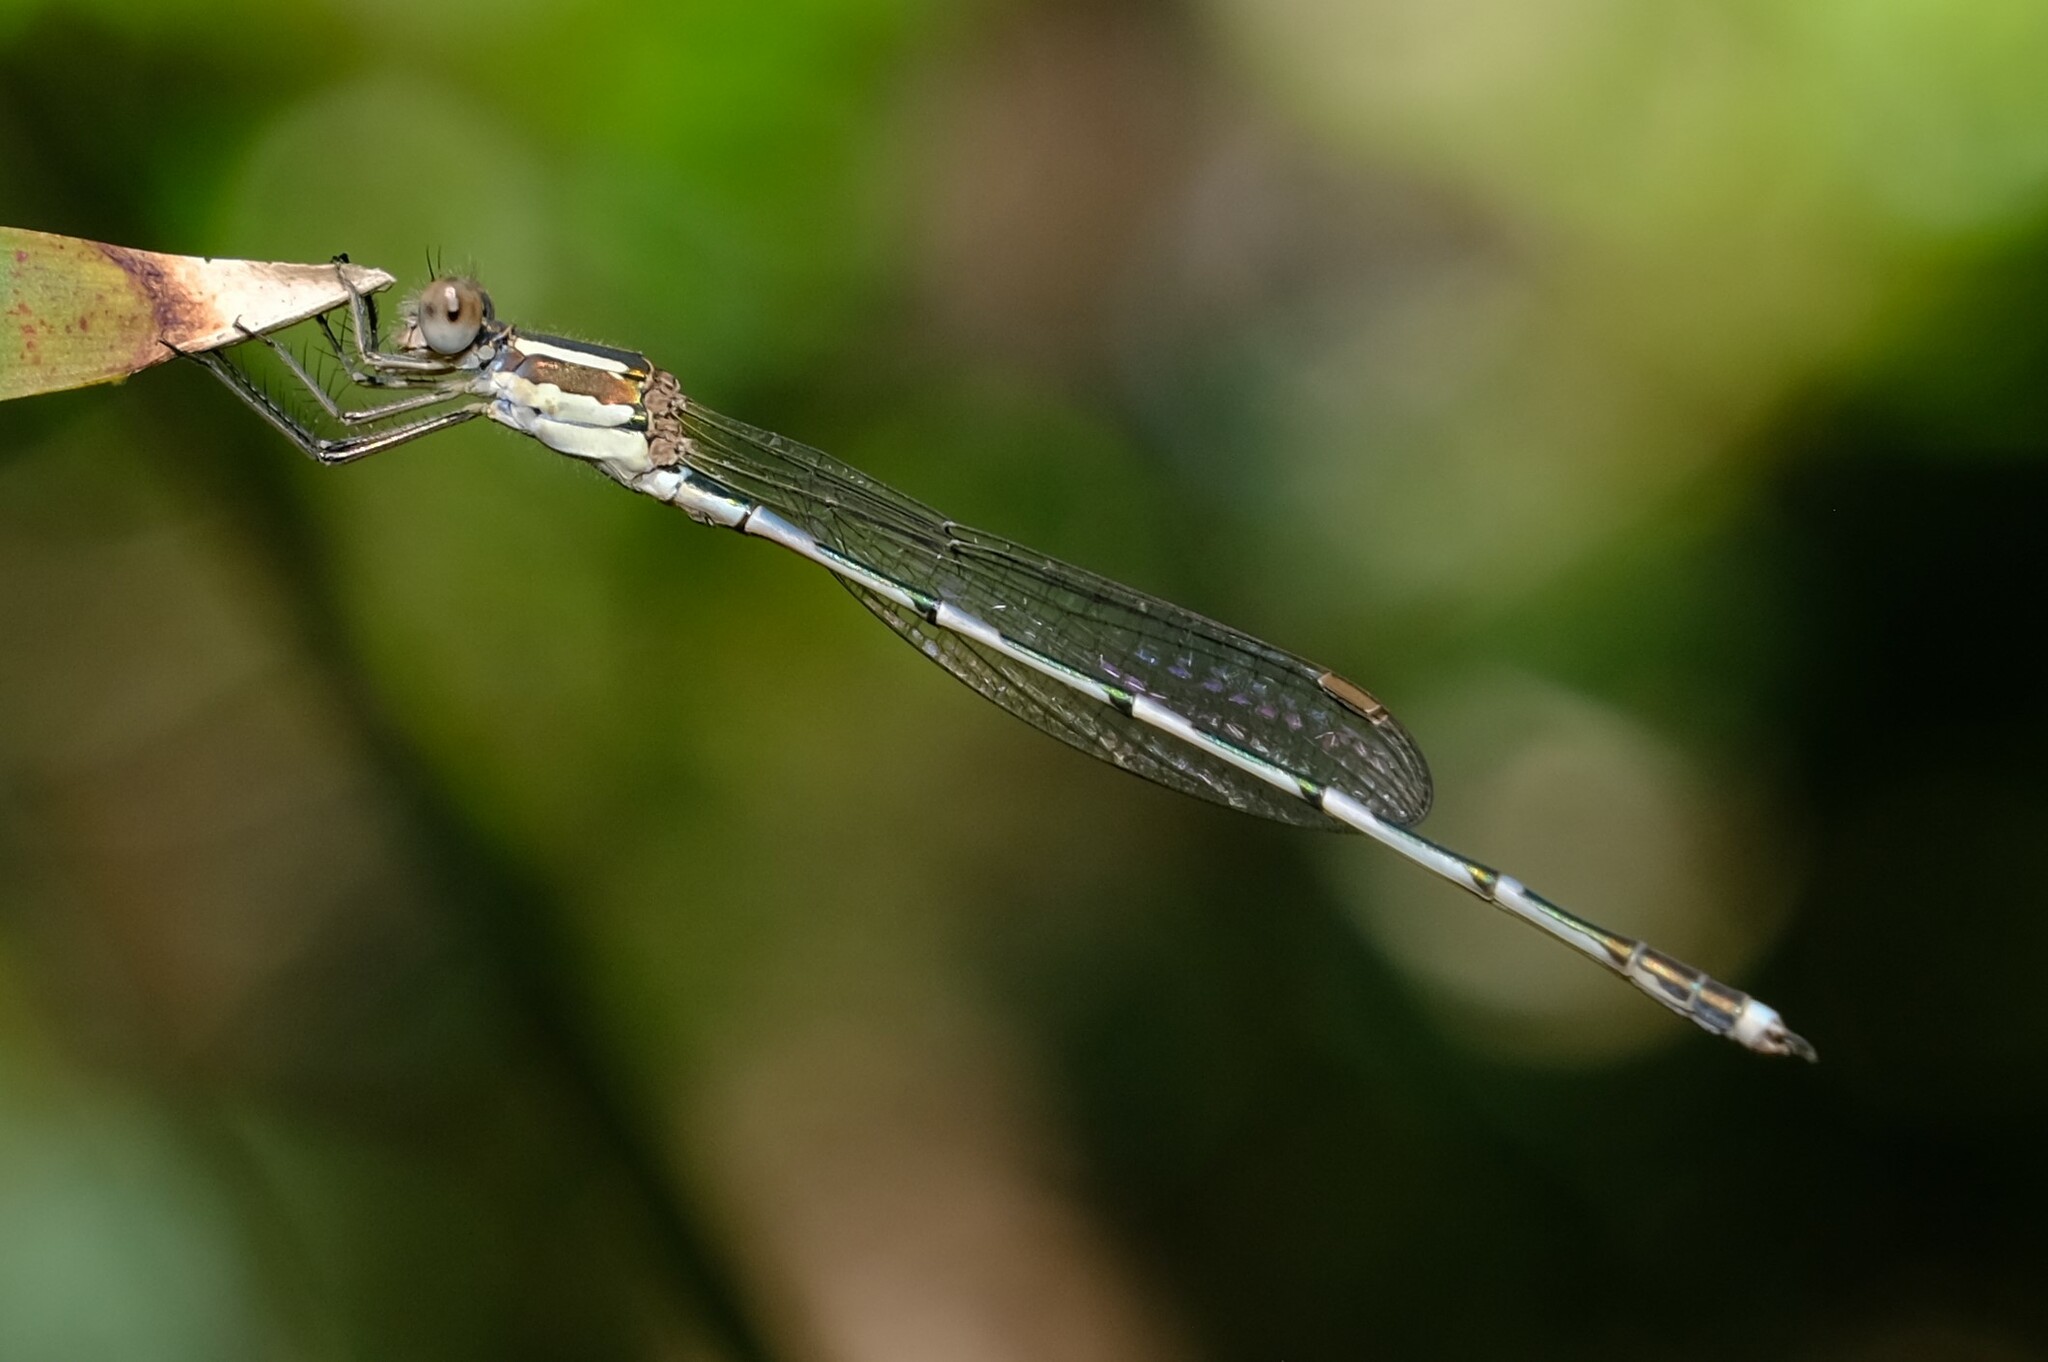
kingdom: Animalia
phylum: Arthropoda
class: Insecta
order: Odonata
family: Lestidae
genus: Austrolestes
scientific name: Austrolestes leda
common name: Wandering ringtail
